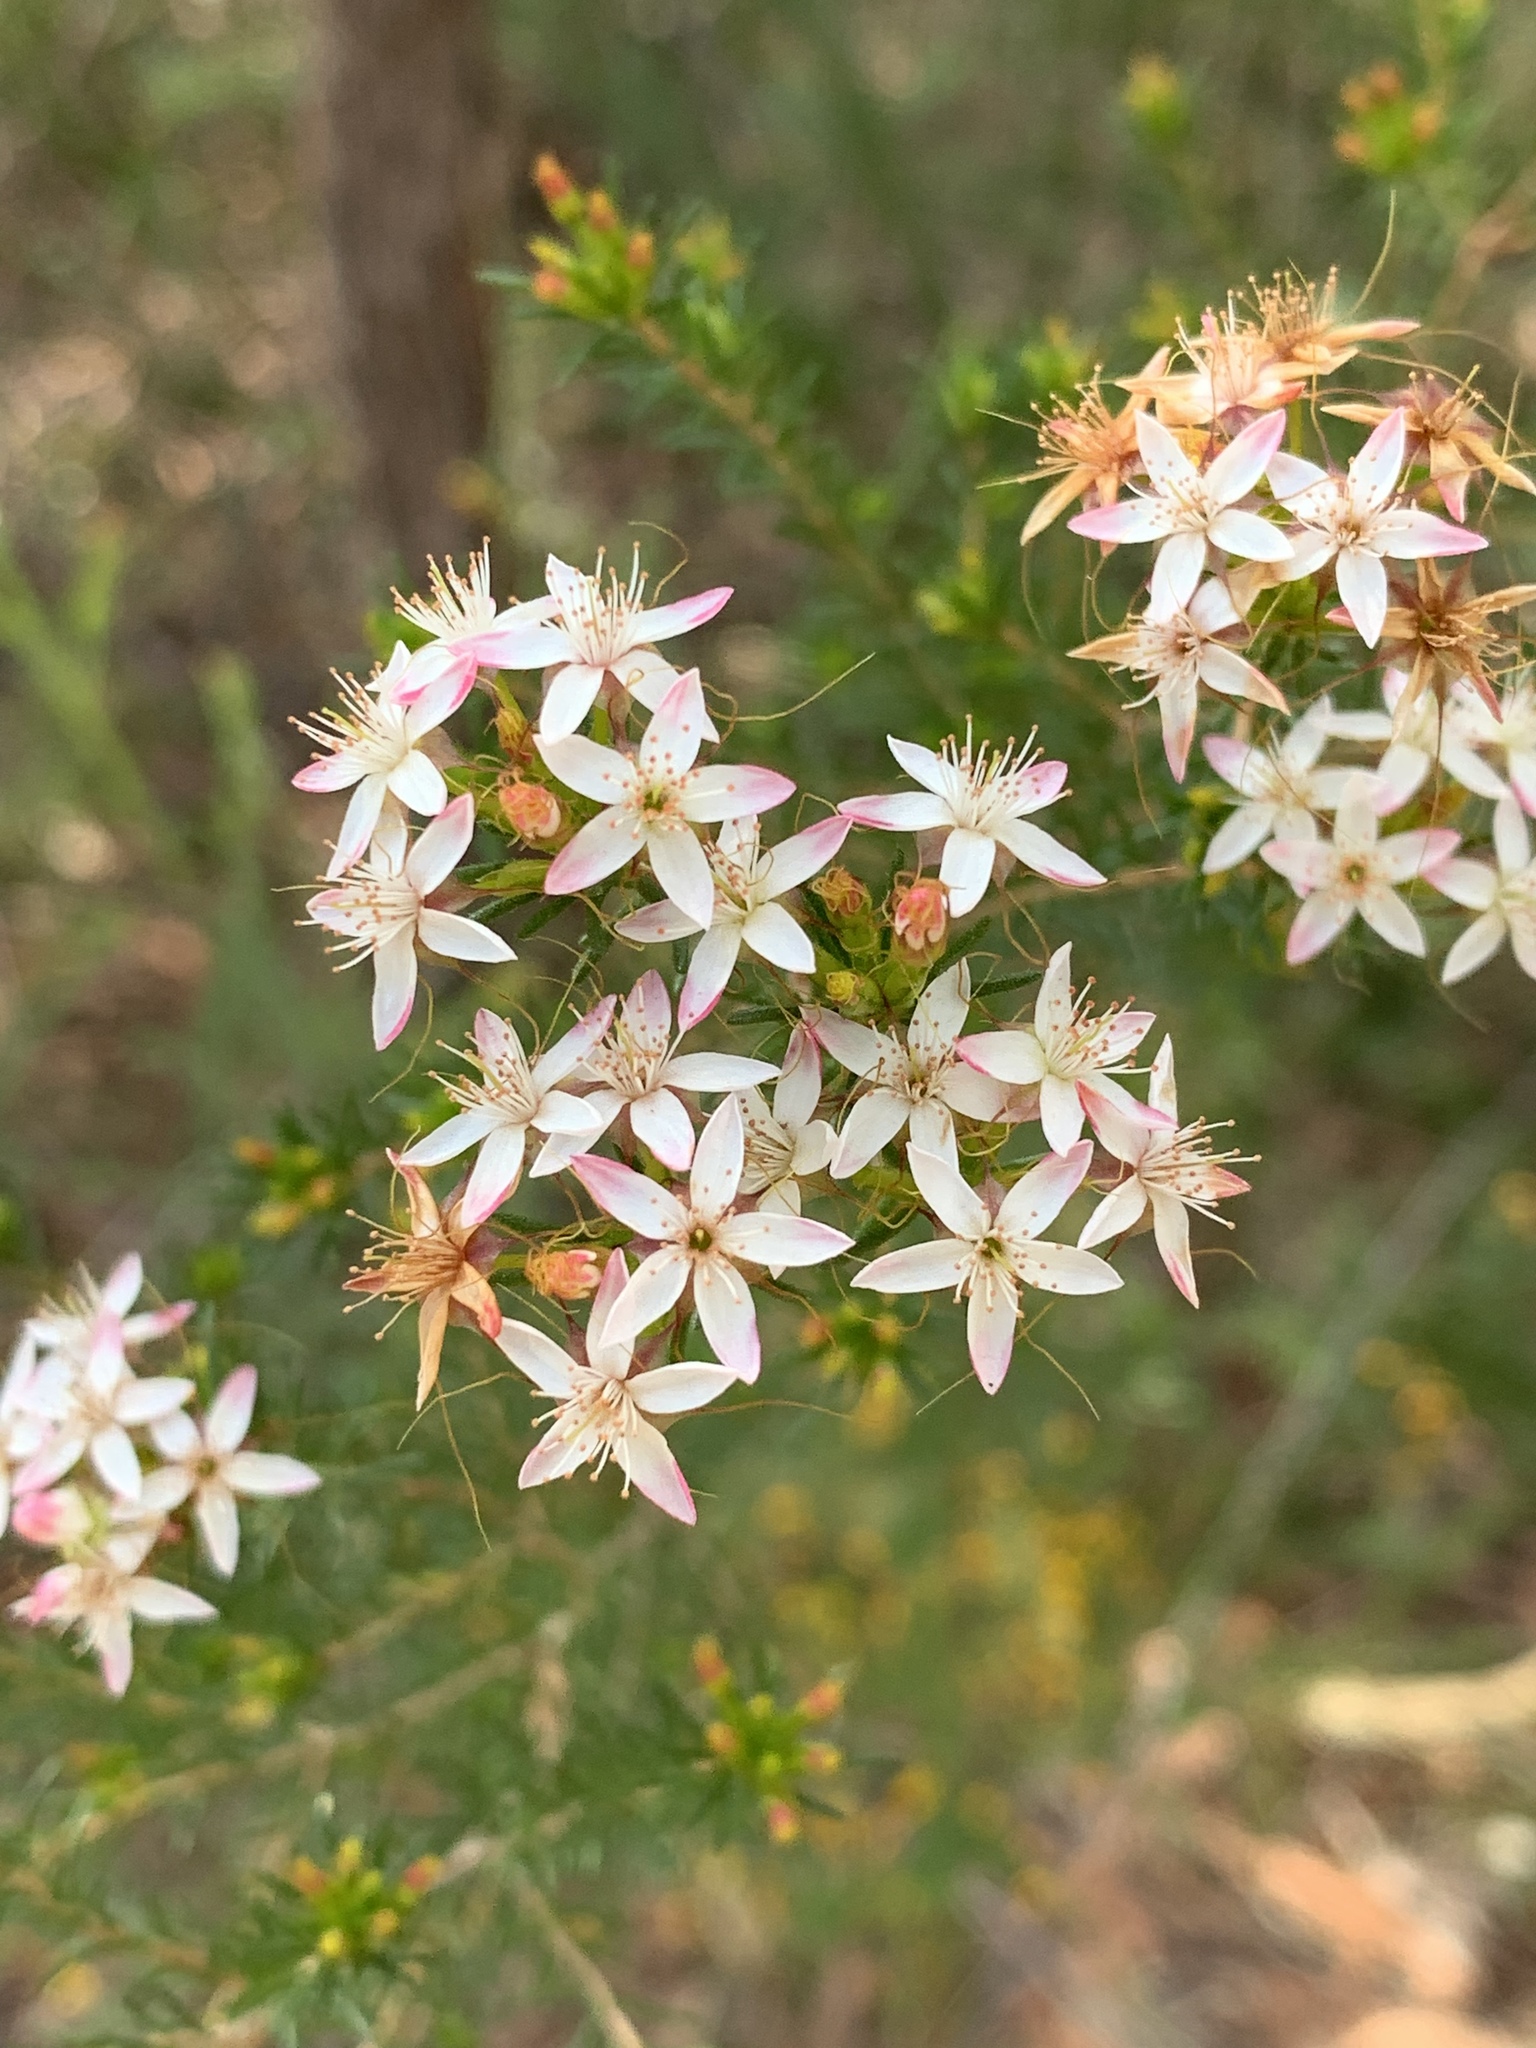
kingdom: Plantae
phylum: Tracheophyta
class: Magnoliopsida
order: Myrtales
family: Myrtaceae
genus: Calytrix
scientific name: Calytrix tetragona
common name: Common fringe myrtle
